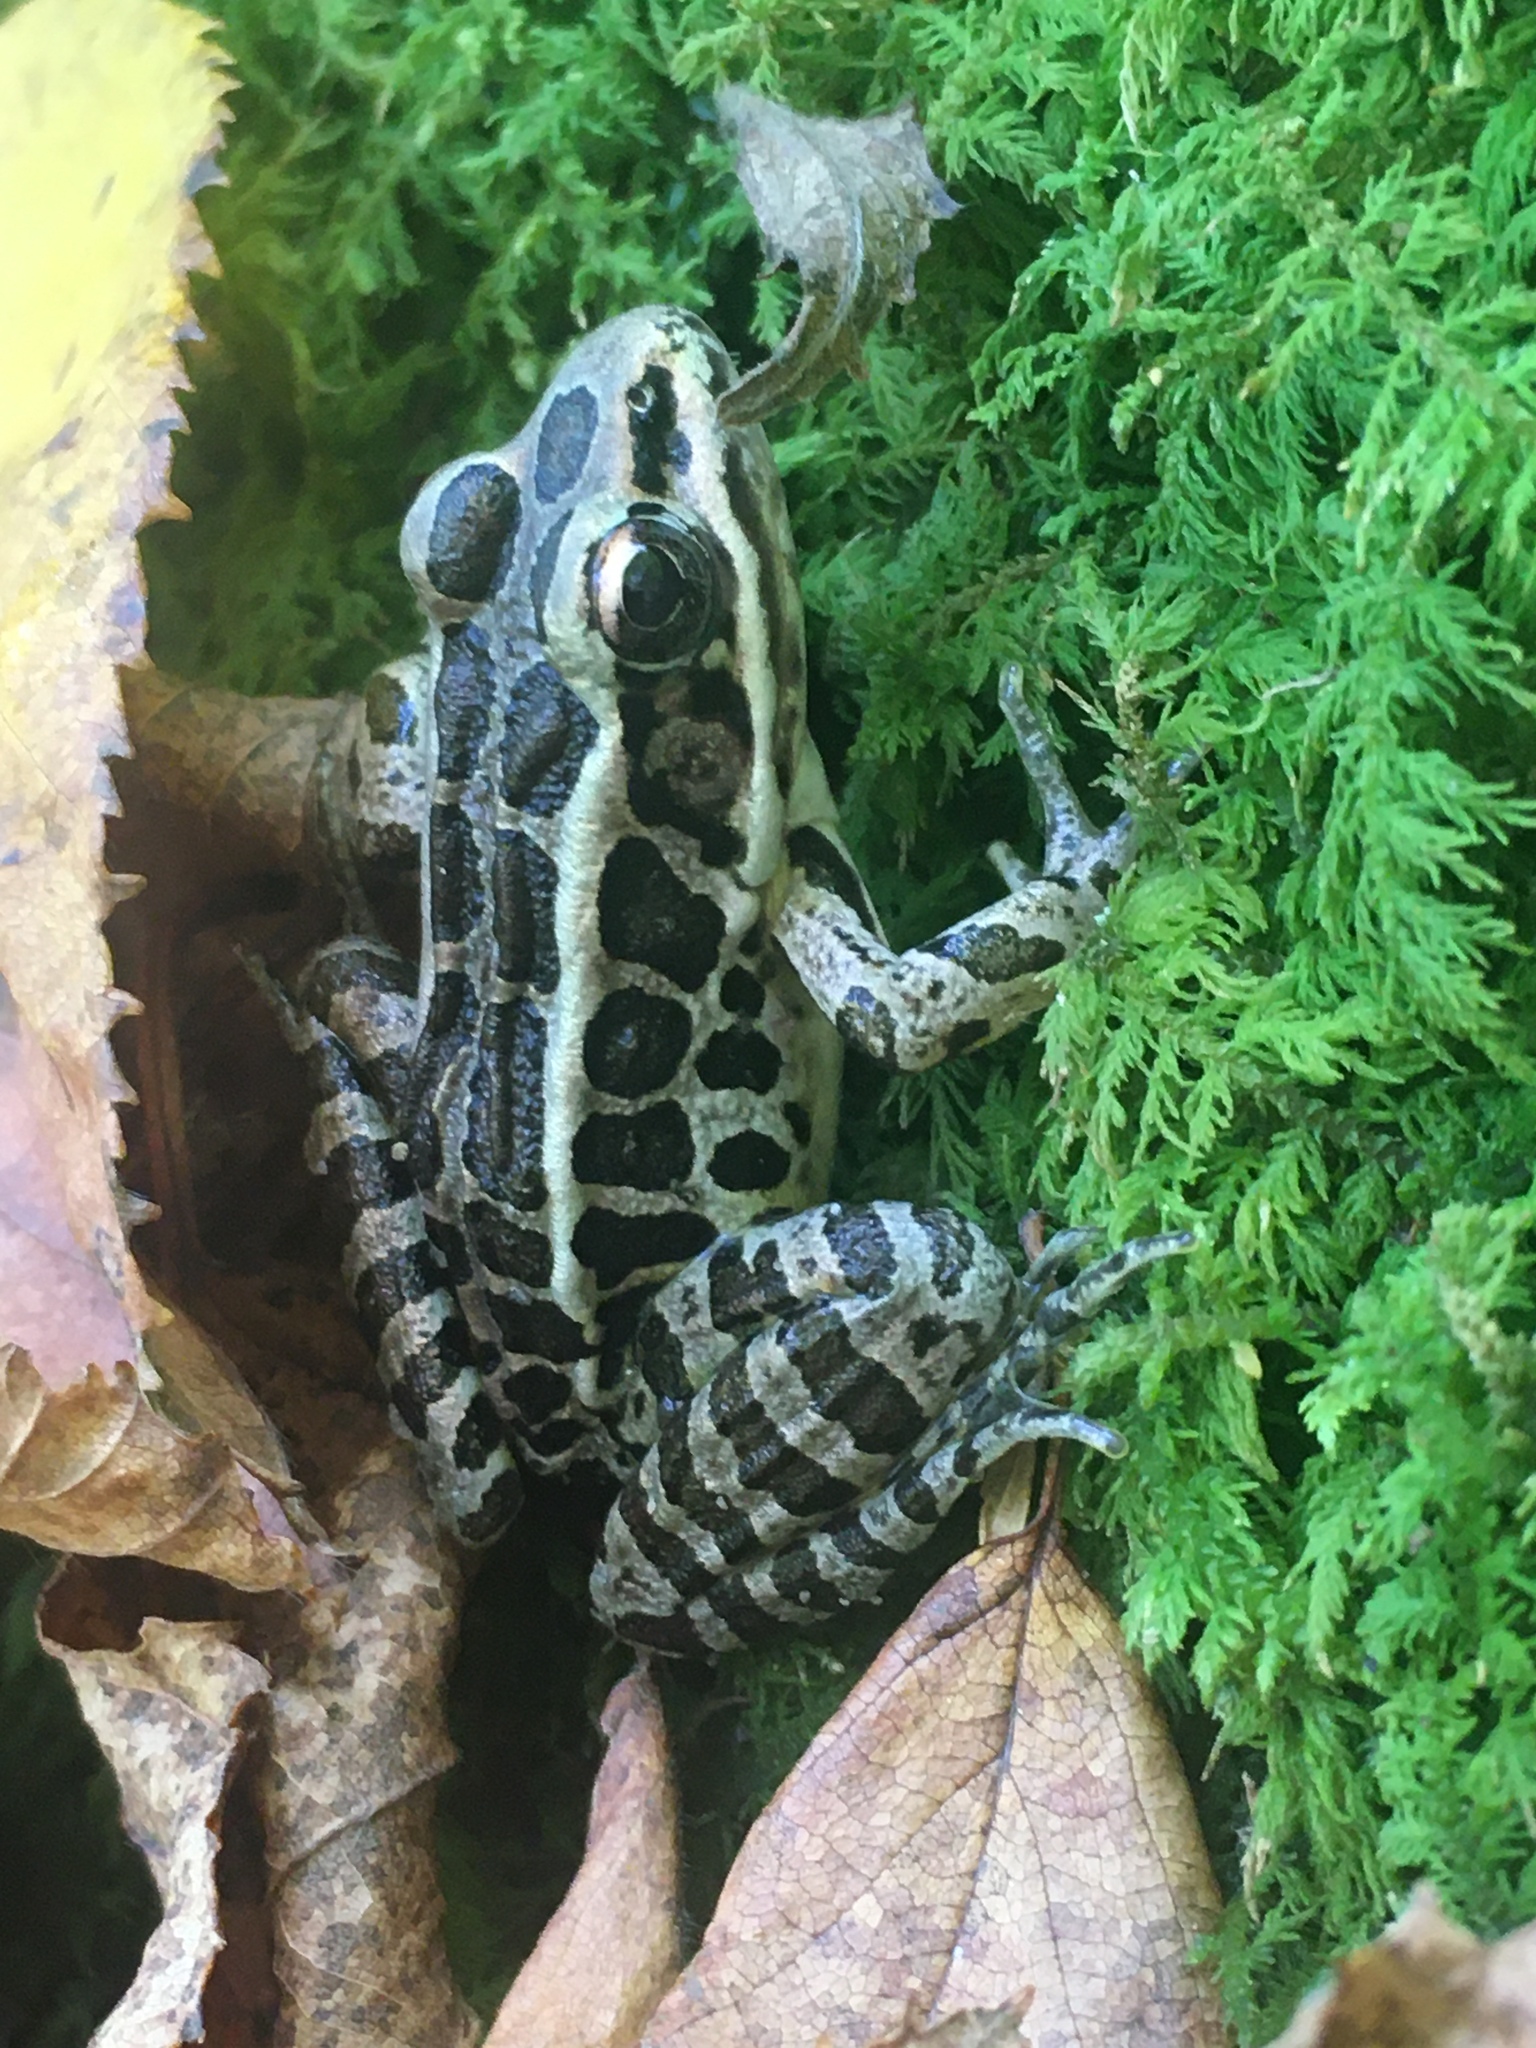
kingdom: Animalia
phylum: Chordata
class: Amphibia
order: Anura
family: Ranidae
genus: Lithobates
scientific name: Lithobates palustris
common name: Pickerel frog
